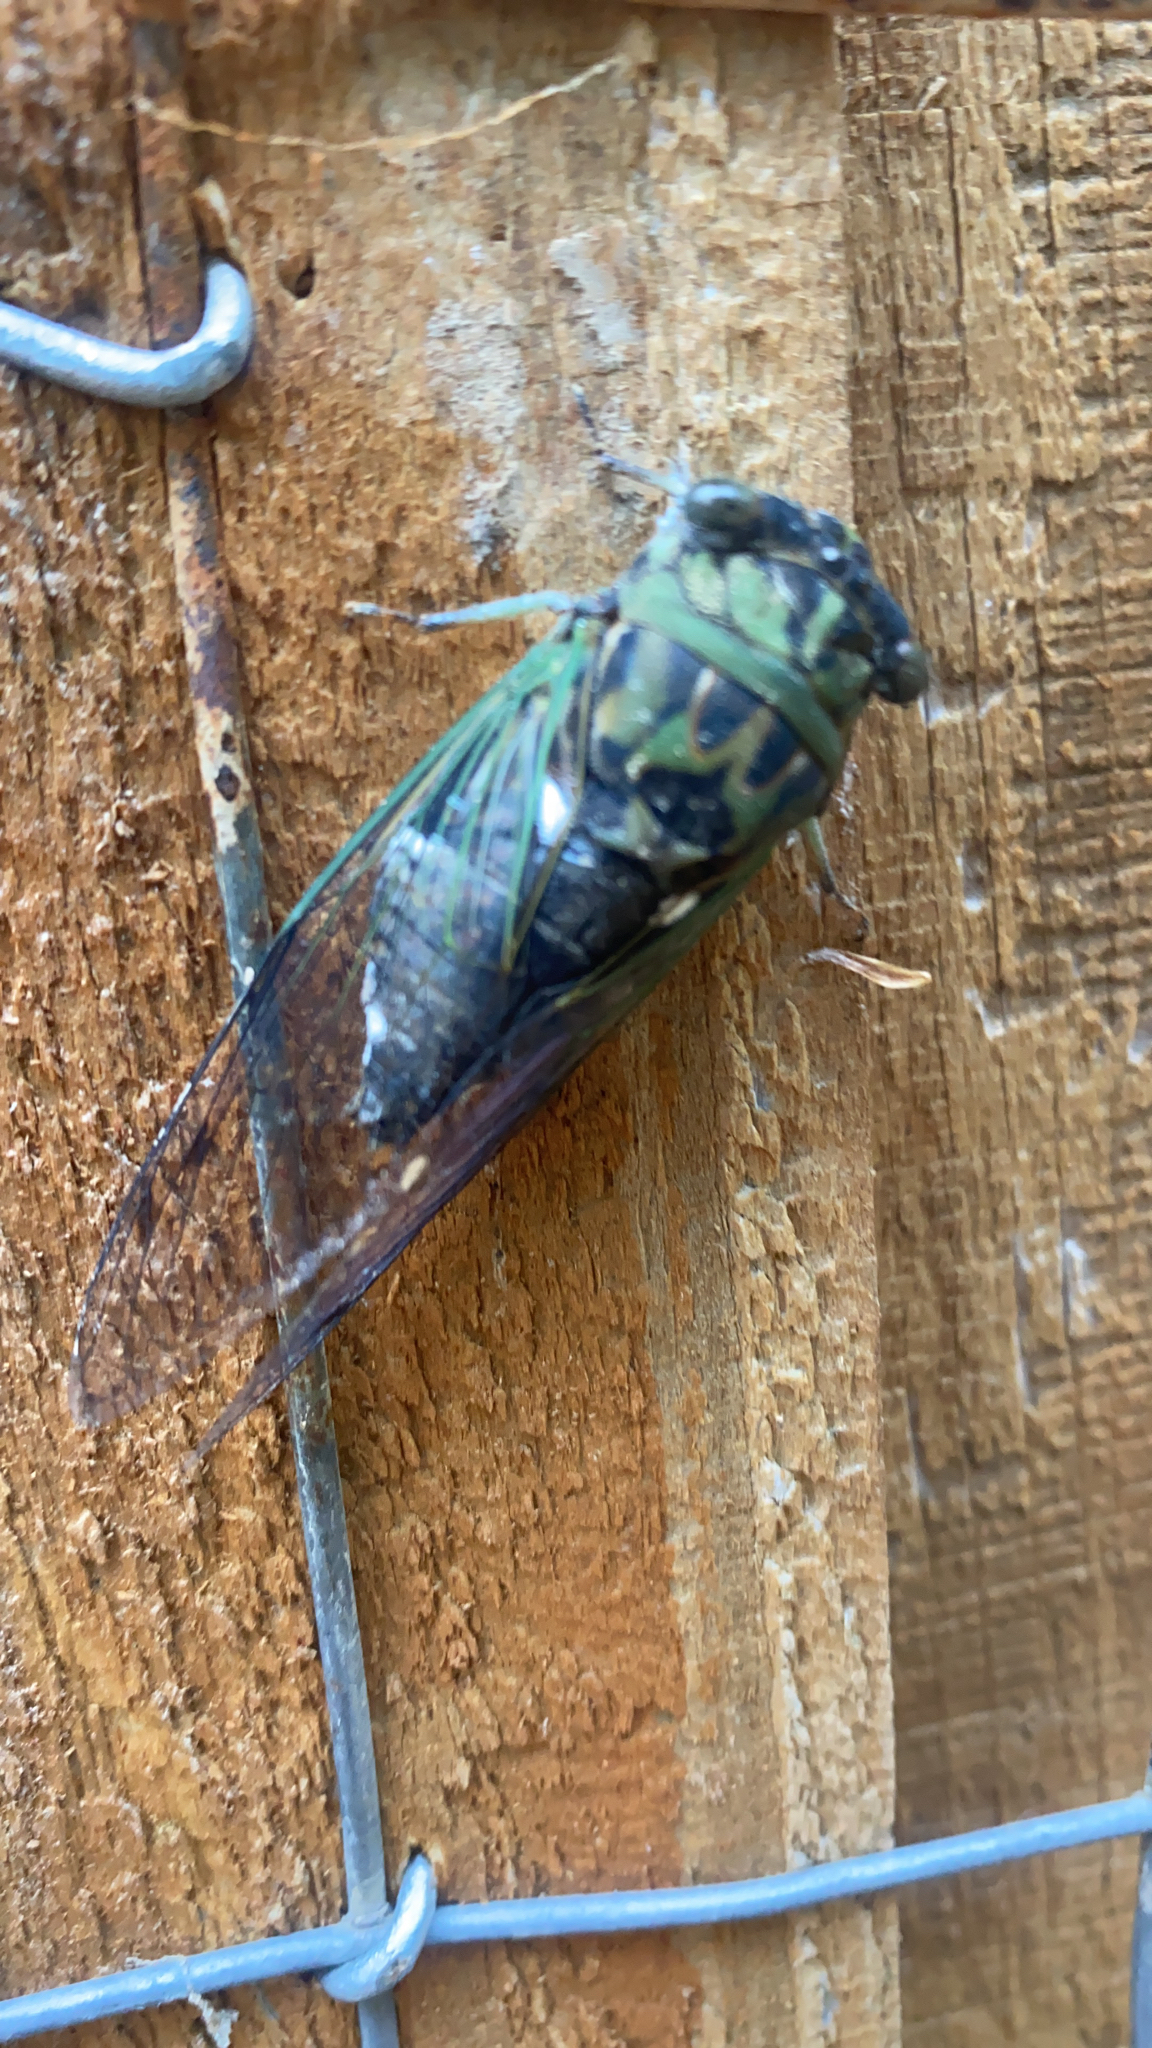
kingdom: Animalia
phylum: Arthropoda
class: Insecta
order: Hemiptera
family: Cicadidae
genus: Neotibicen
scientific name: Neotibicen pruinosus
